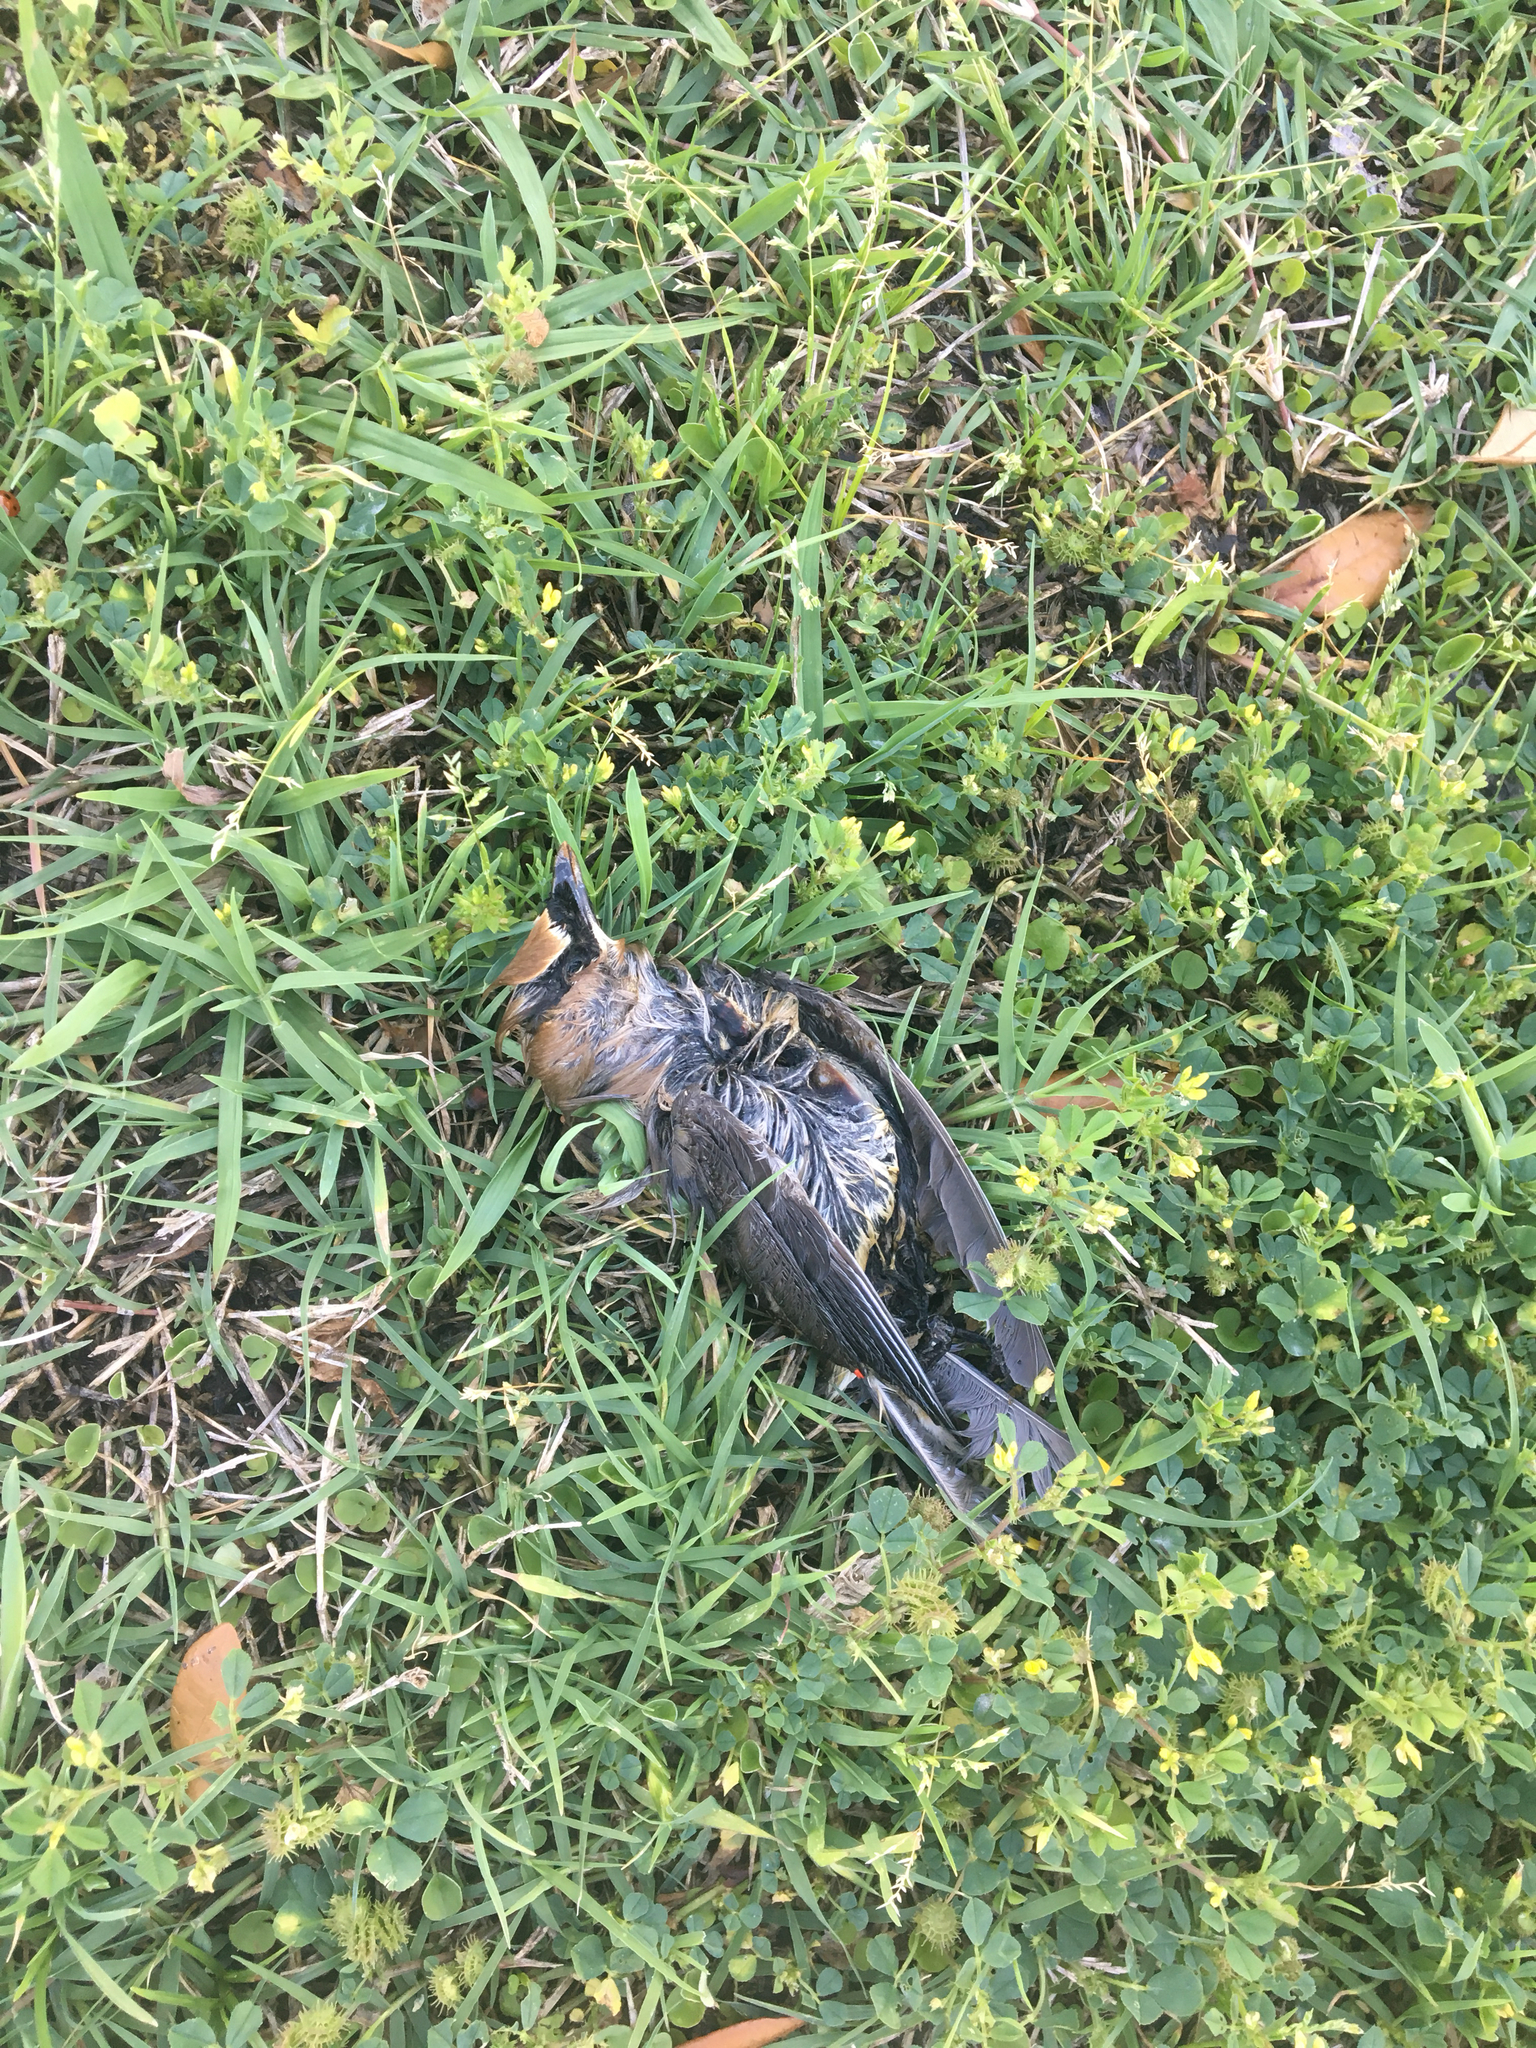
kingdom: Animalia
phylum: Chordata
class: Aves
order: Passeriformes
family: Bombycillidae
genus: Bombycilla
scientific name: Bombycilla cedrorum
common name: Cedar waxwing
